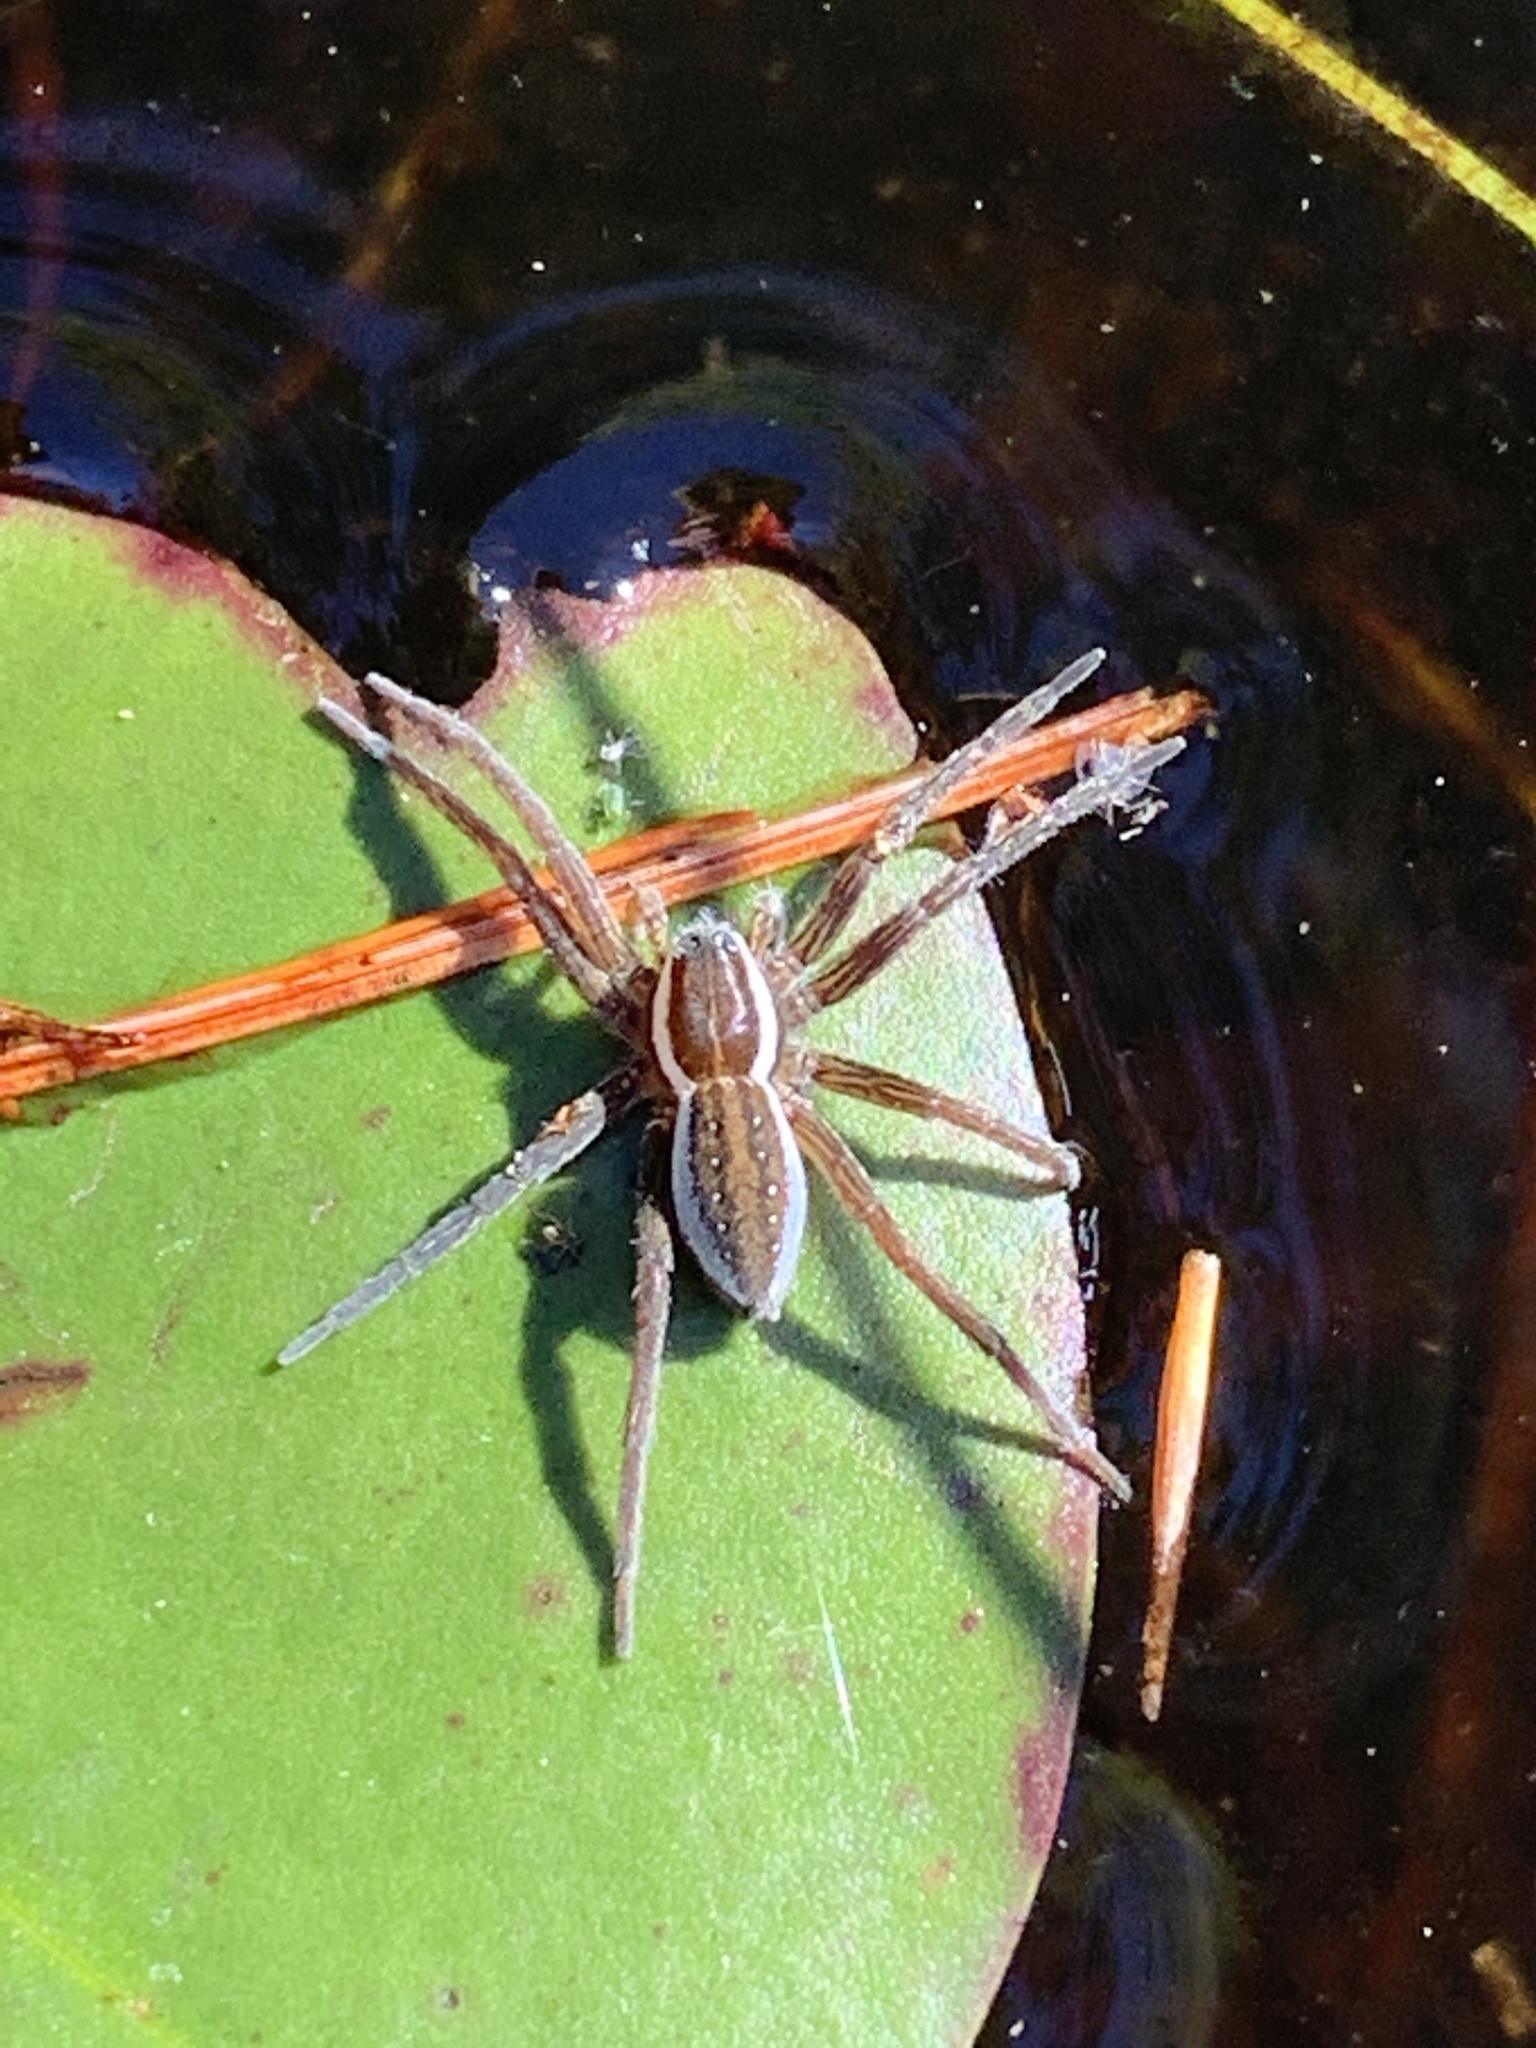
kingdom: Animalia
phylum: Arthropoda
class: Arachnida
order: Araneae
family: Pisauridae
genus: Dolomedes
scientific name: Dolomedes triton
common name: Six-spotted fishing spider
